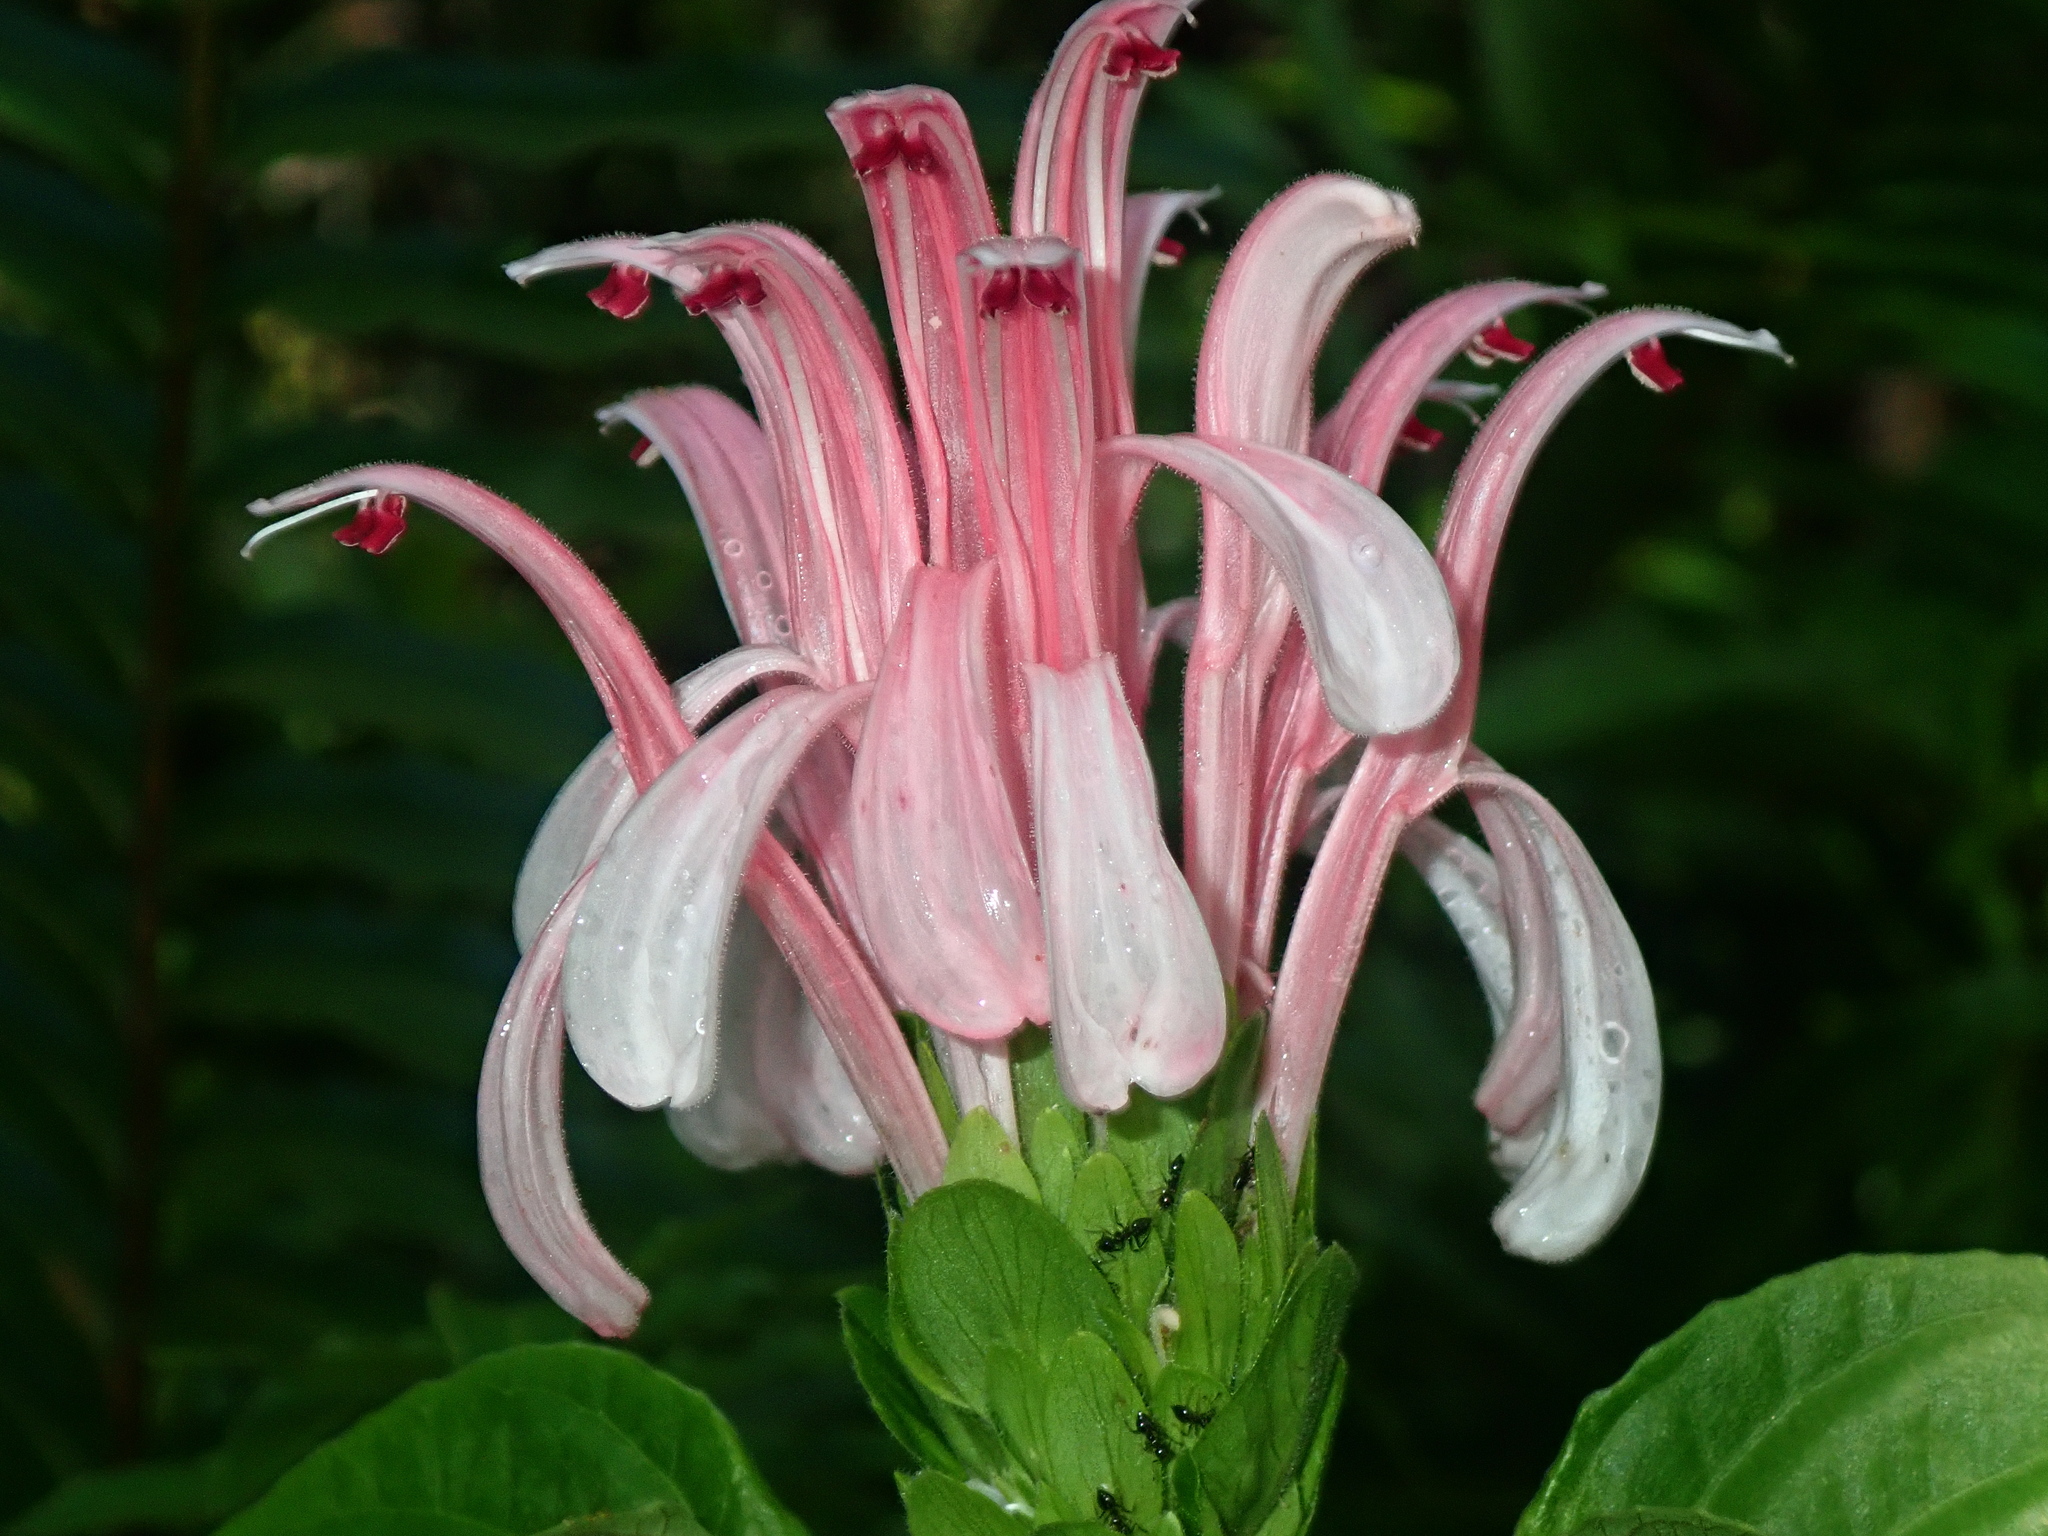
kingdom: Plantae
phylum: Tracheophyta
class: Magnoliopsida
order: Lamiales
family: Acanthaceae
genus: Justicia
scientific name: Justicia carnea
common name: Brazilian-plume
